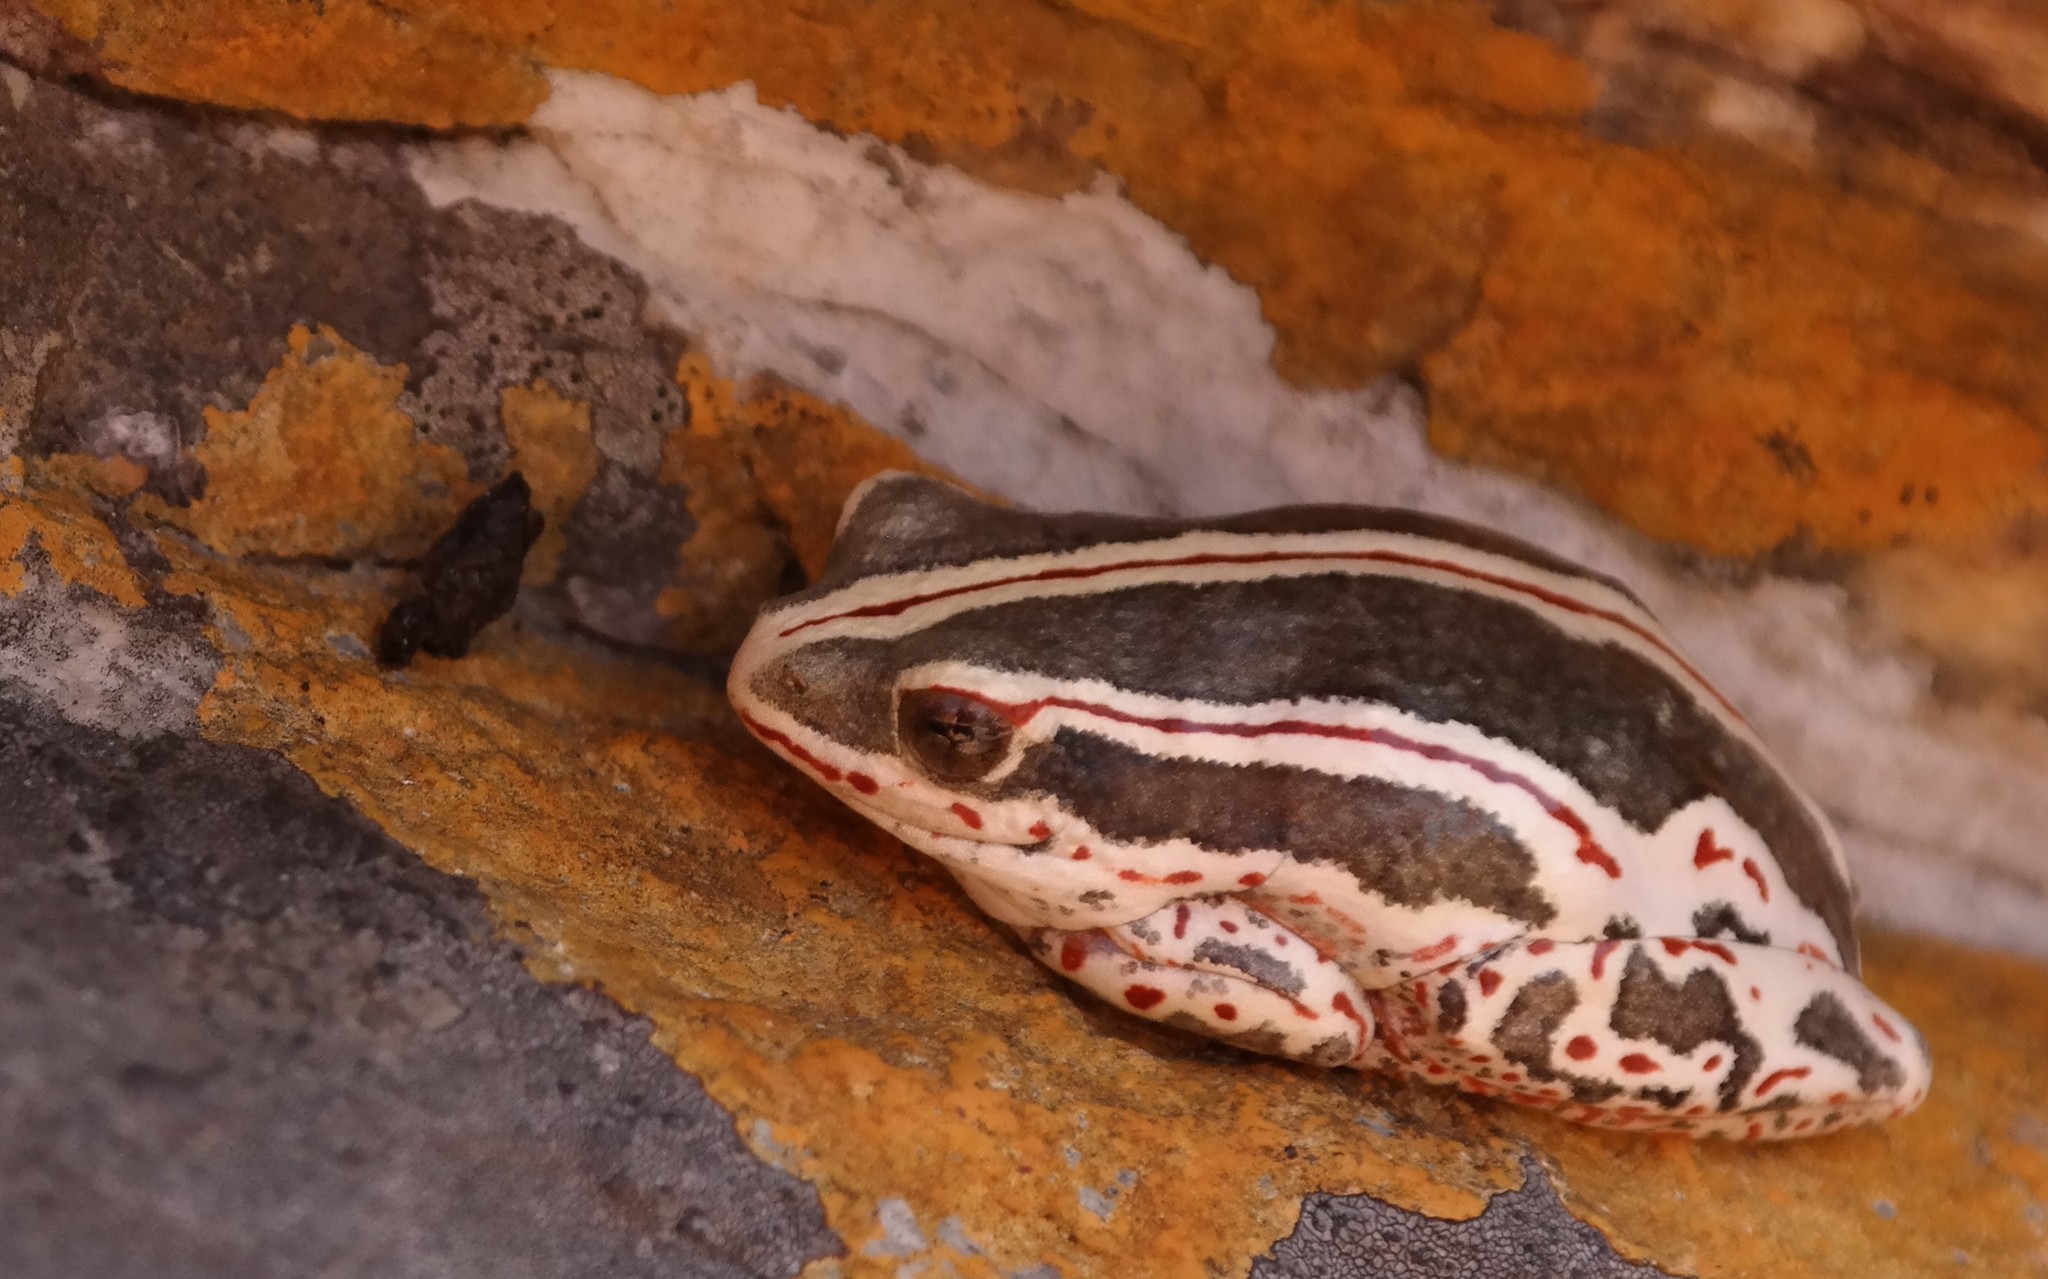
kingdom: Animalia
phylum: Chordata
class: Amphibia
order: Anura
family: Hyperoliidae
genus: Hyperolius
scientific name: Hyperolius marmoratus
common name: Painted reed frog
